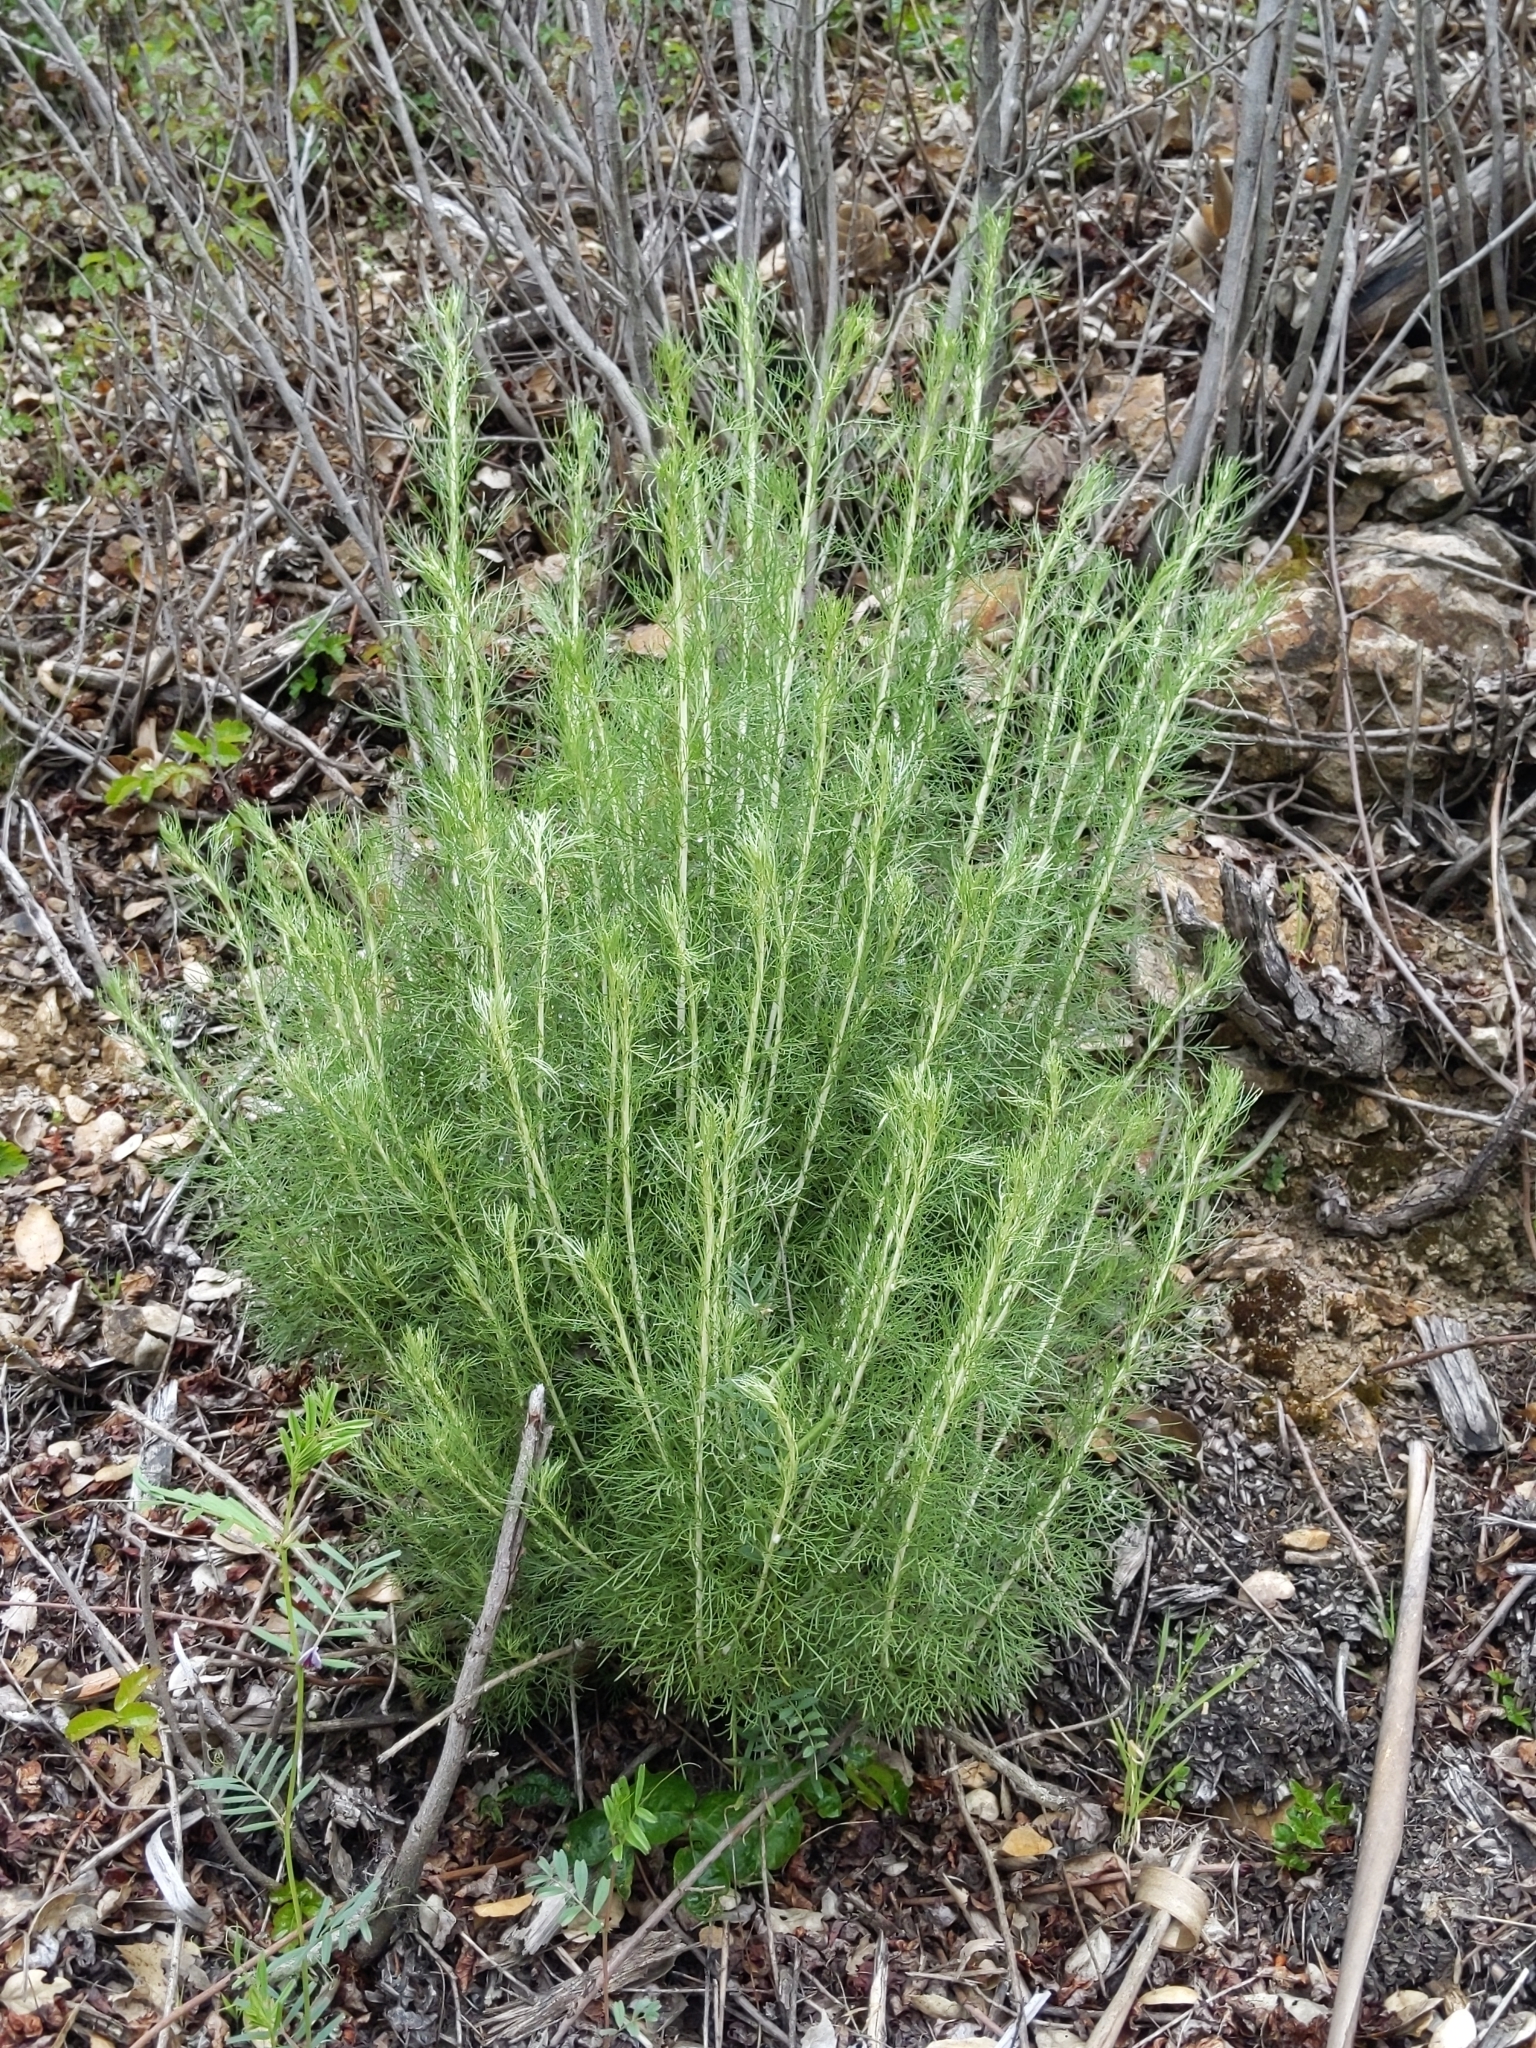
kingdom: Plantae
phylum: Tracheophyta
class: Magnoliopsida
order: Asterales
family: Asteraceae
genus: Artemisia
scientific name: Artemisia californica
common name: California sagebrush
